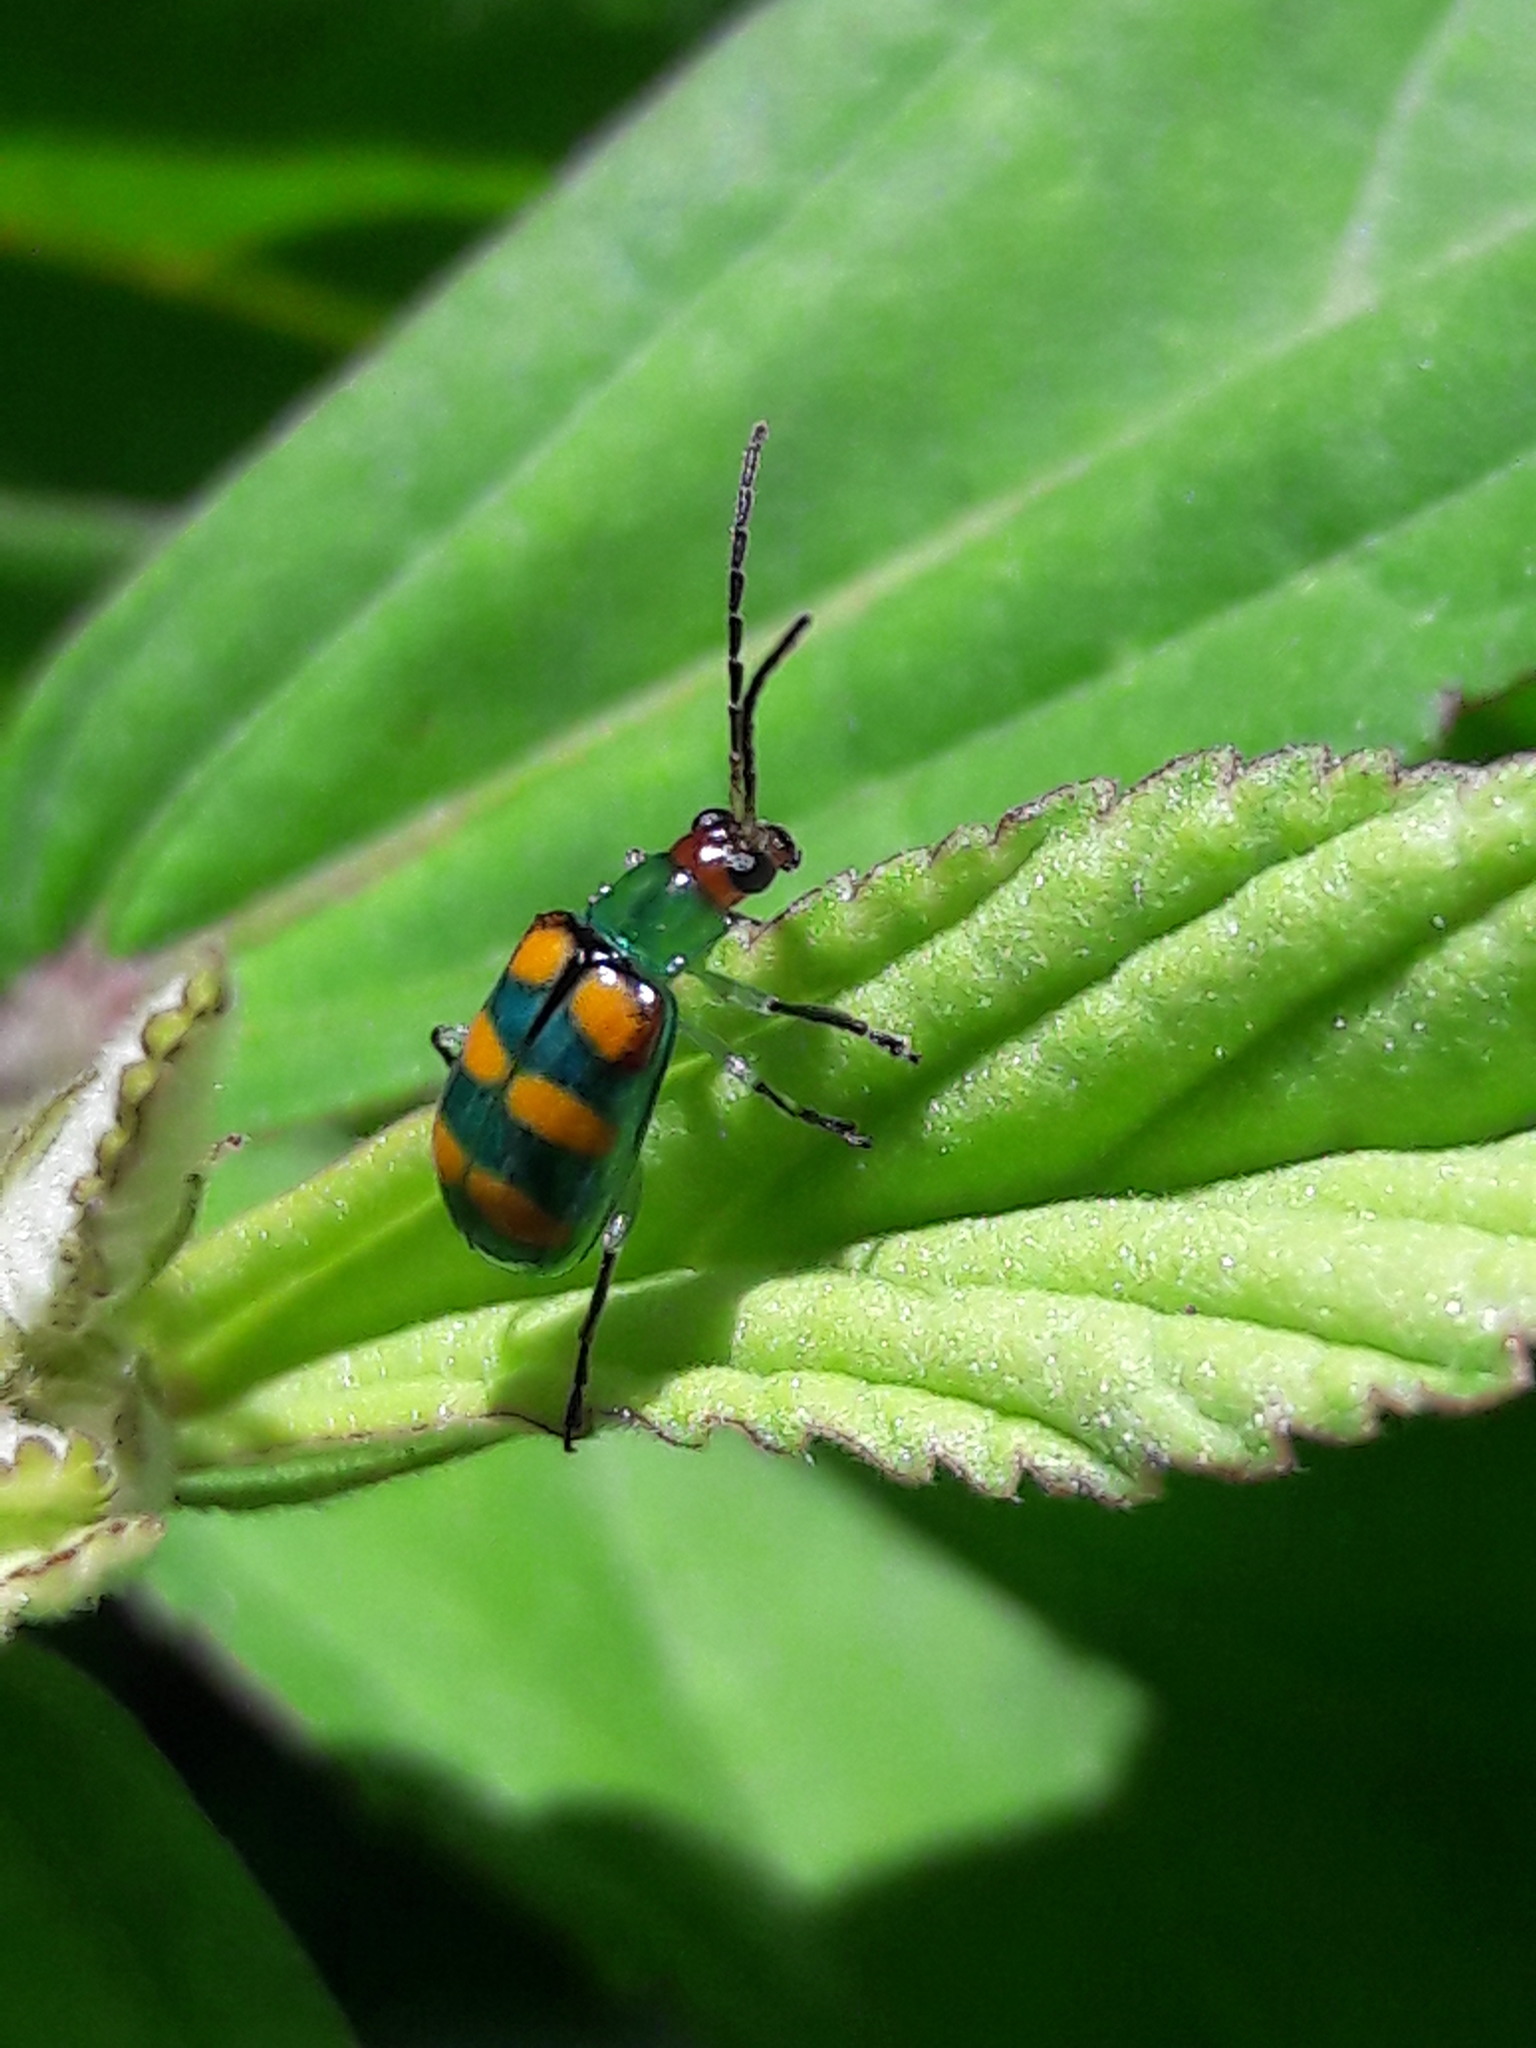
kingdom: Animalia
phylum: Arthropoda
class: Insecta
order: Coleoptera
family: Chrysomelidae
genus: Diabrotica
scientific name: Diabrotica speciosa
